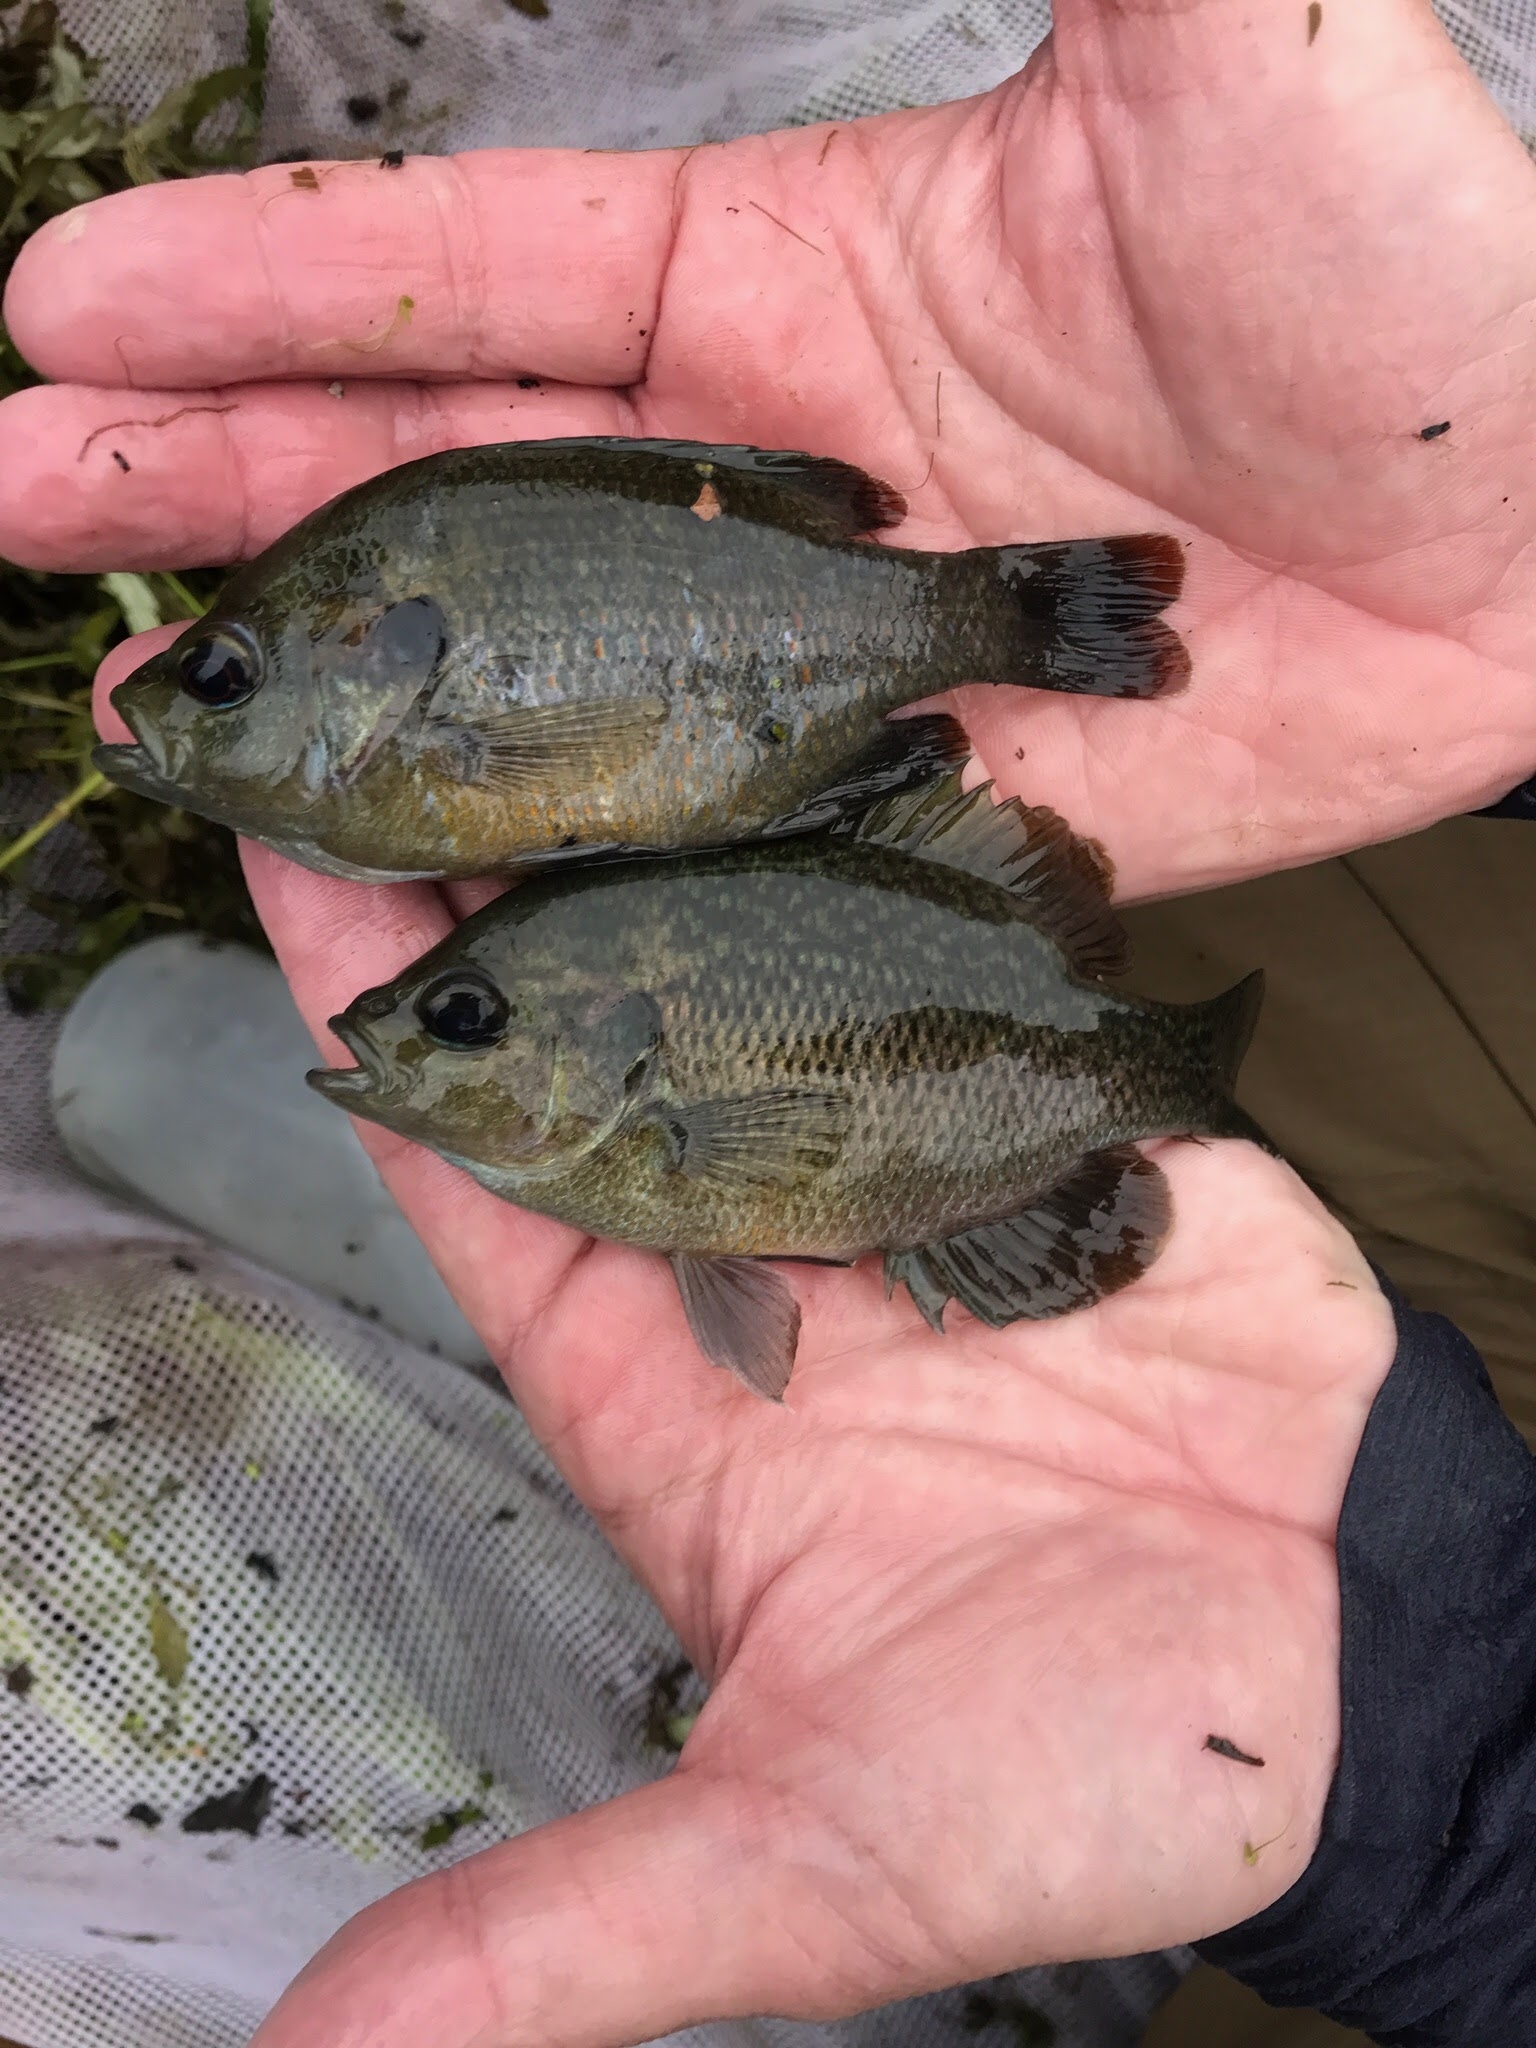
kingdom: Animalia
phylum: Chordata
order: Perciformes
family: Centrarchidae
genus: Lepomis
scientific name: Lepomis miniatus
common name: Redspotted sunfish
